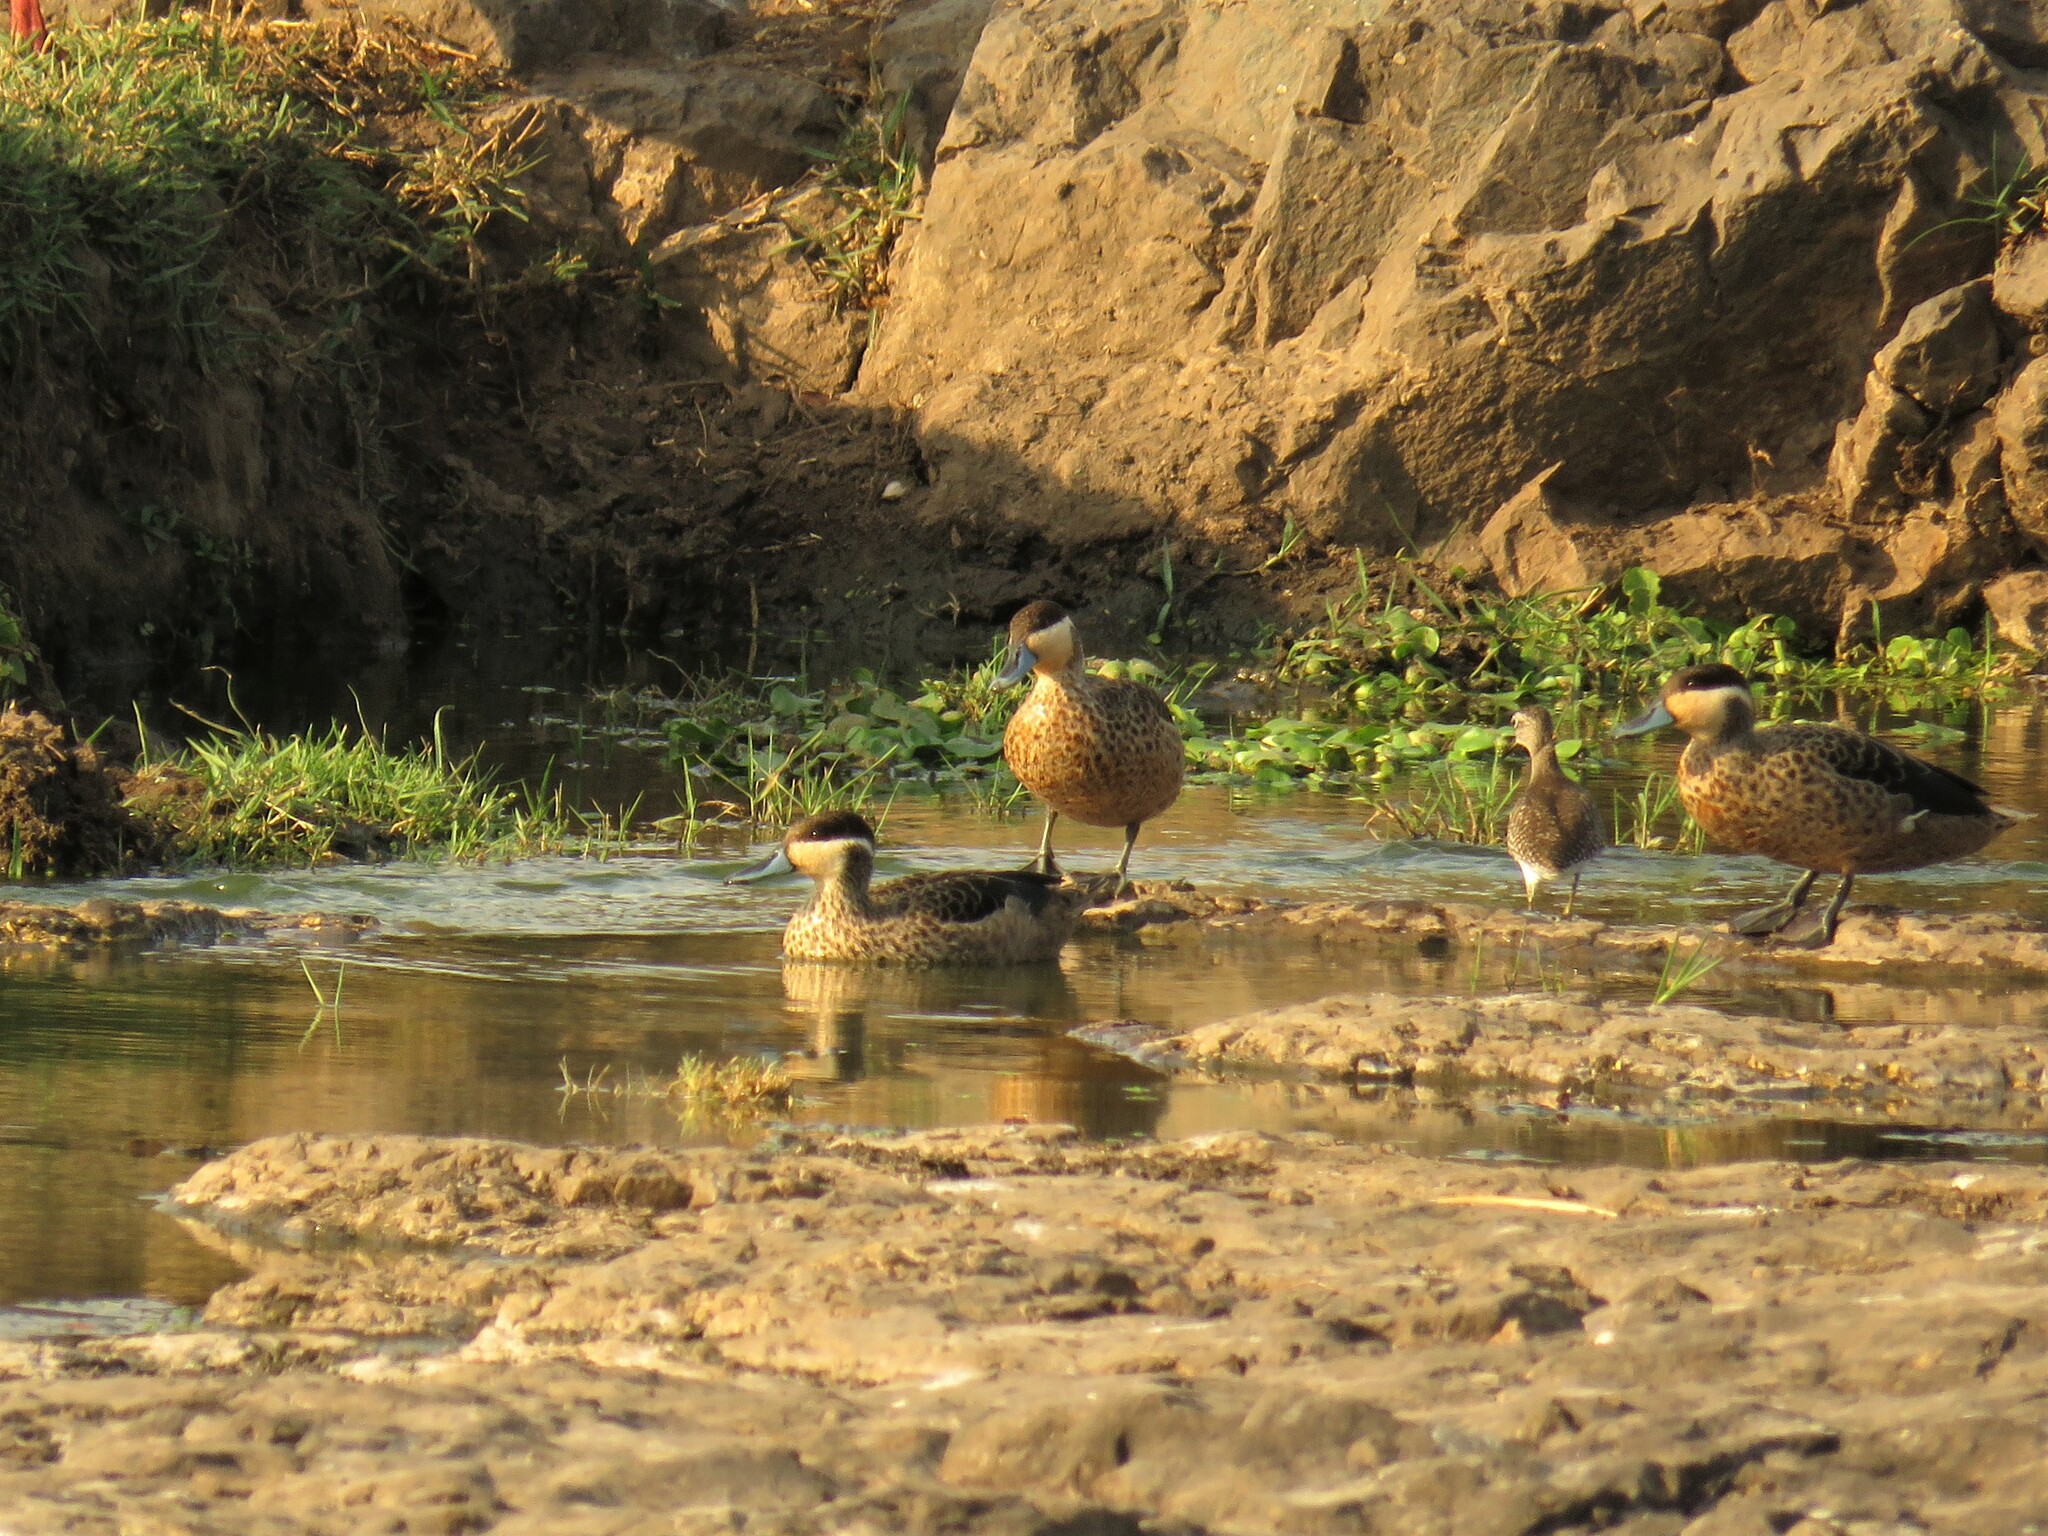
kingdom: Animalia
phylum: Chordata
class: Aves
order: Anseriformes
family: Anatidae
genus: Spatula
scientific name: Spatula hottentota
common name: Blue-billed teal
